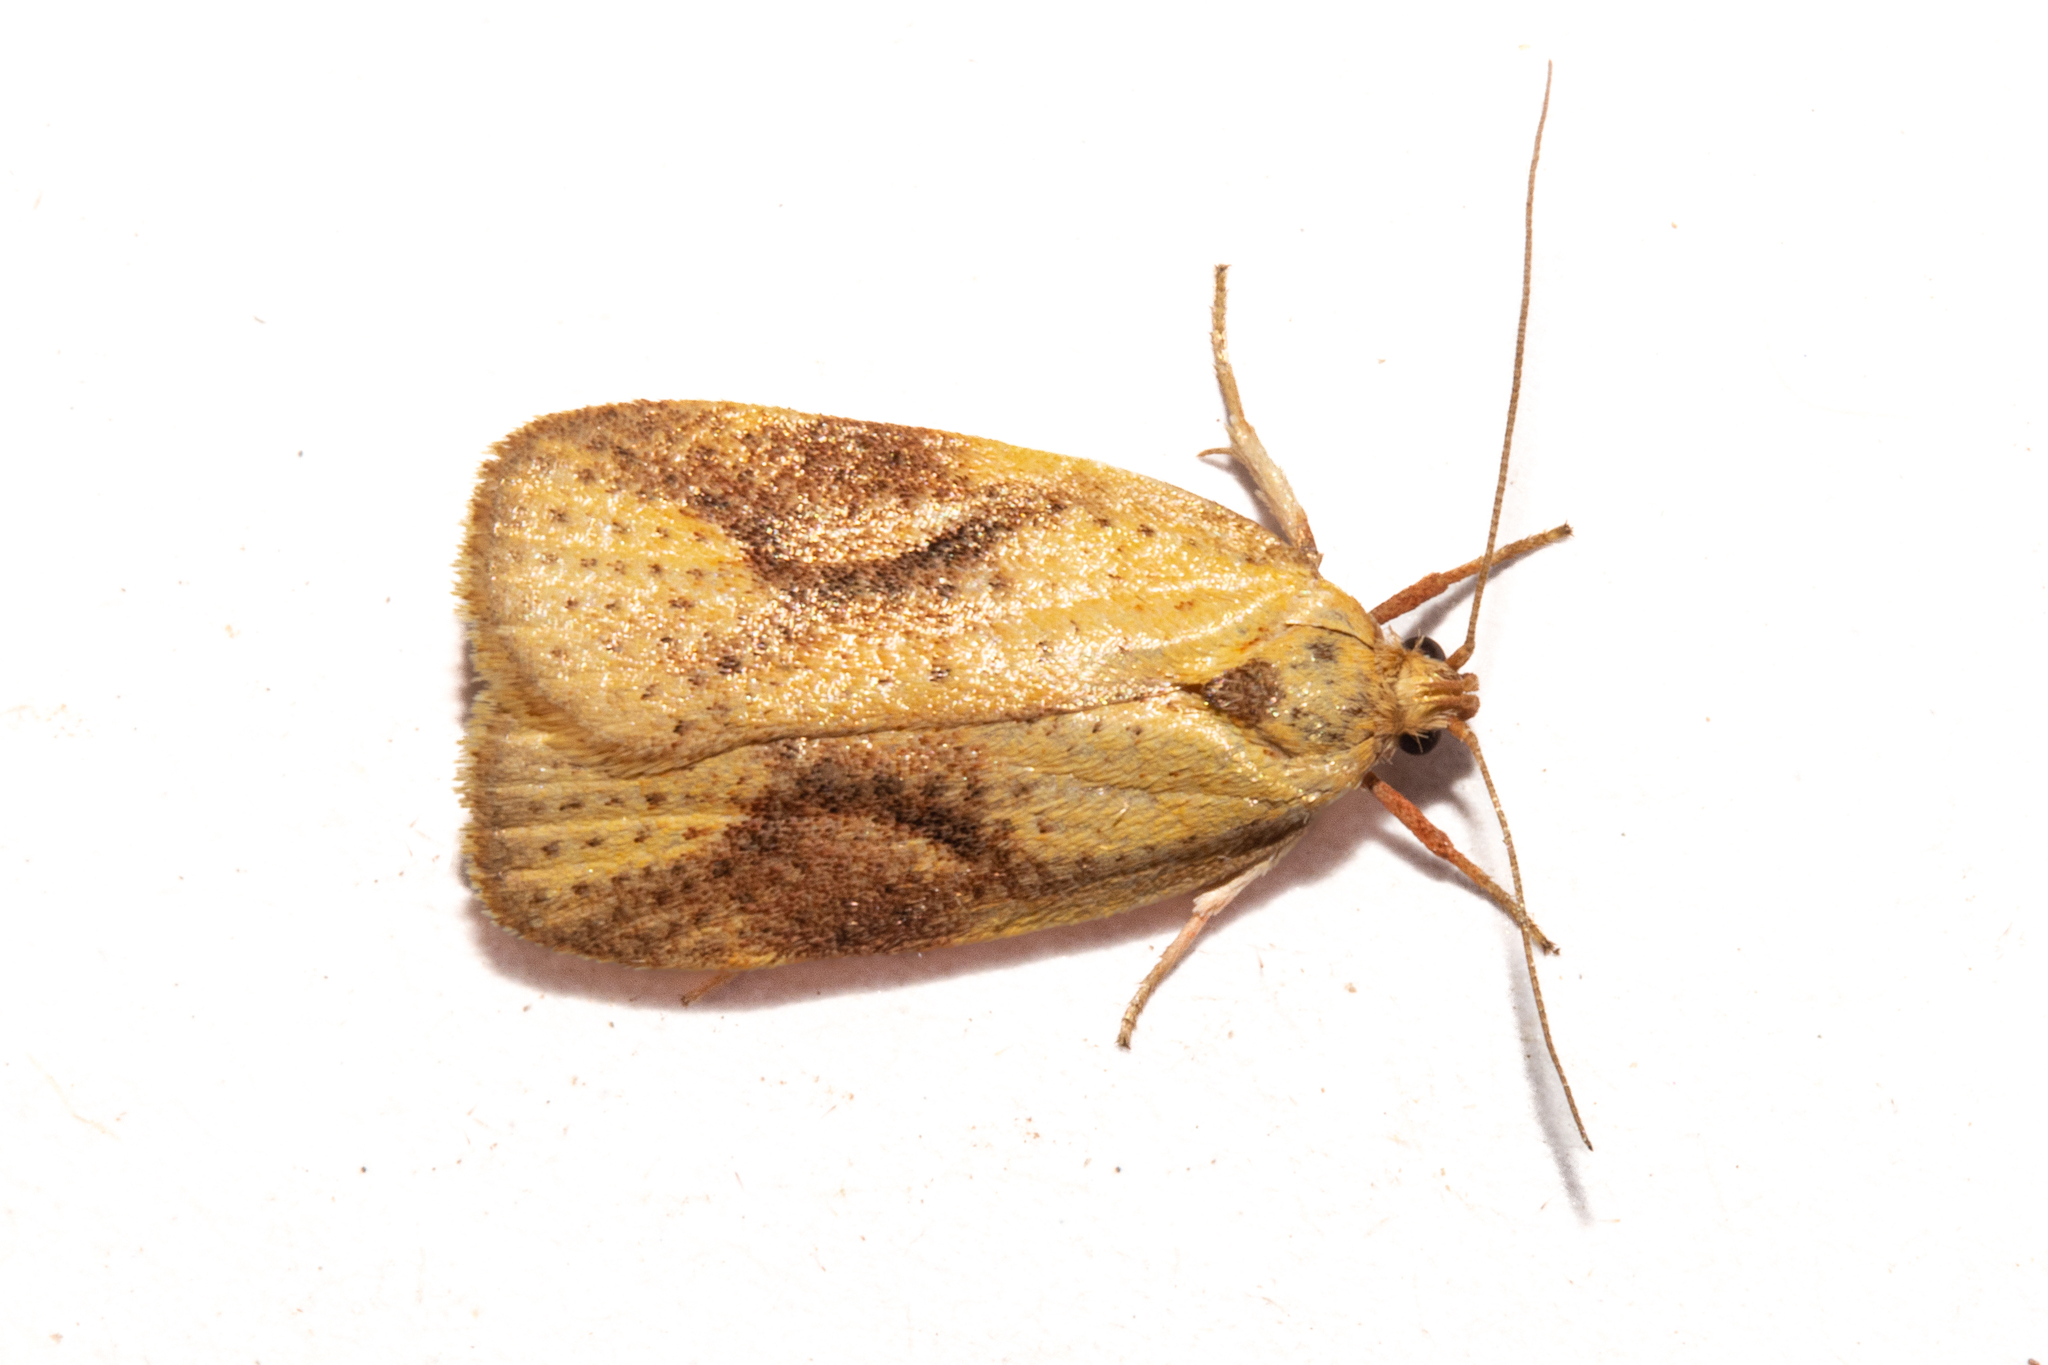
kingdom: Animalia
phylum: Arthropoda
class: Insecta
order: Lepidoptera
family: Oecophoridae
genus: Proteodes
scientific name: Proteodes carnifex
